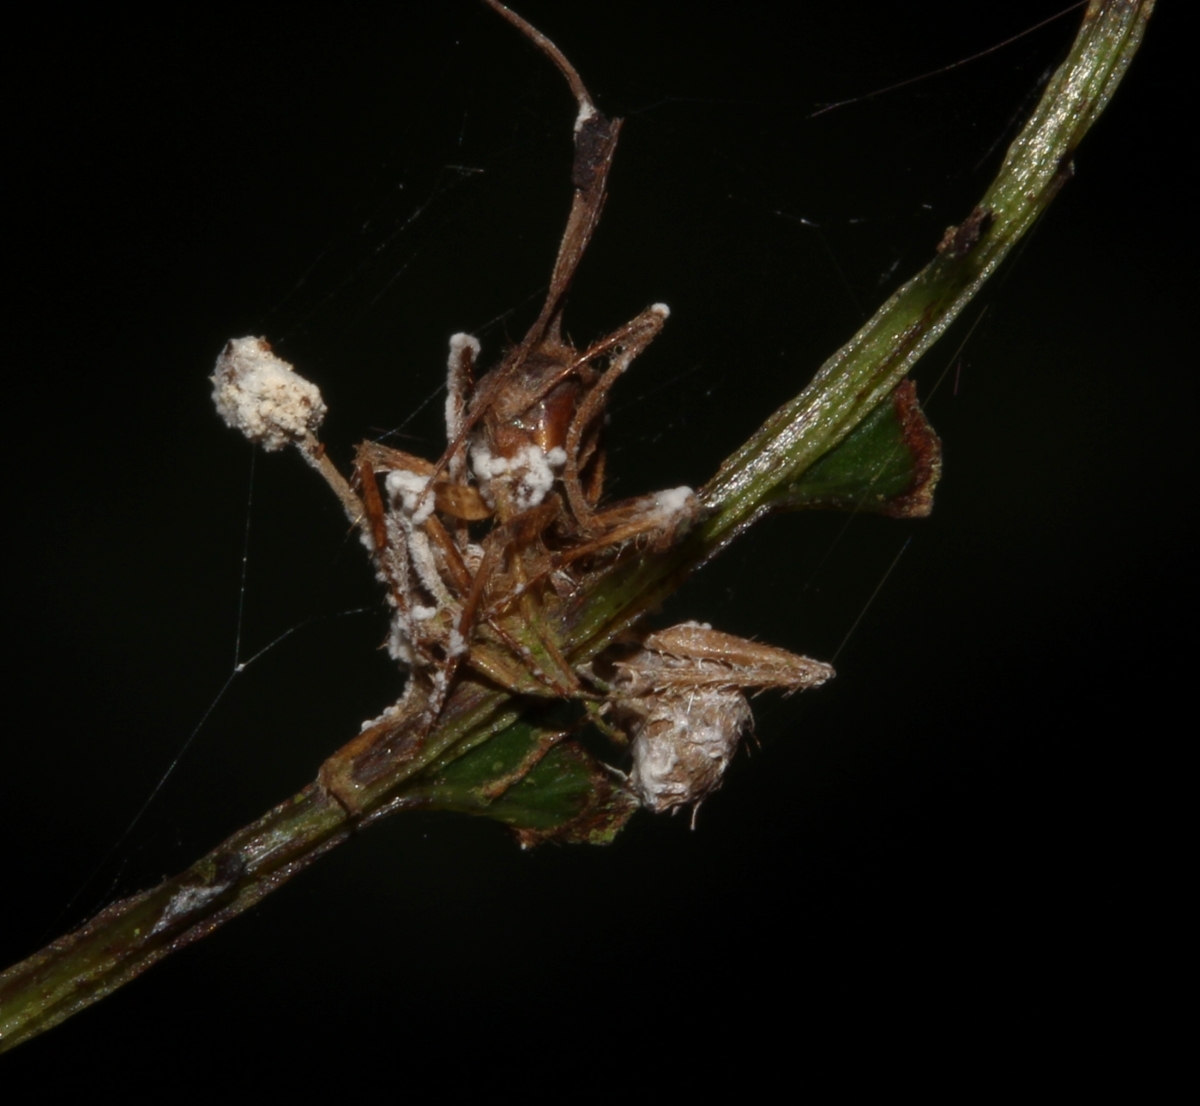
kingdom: Fungi
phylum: Ascomycota
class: Sordariomycetes
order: Hypocreales
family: Ophiocordycipitaceae
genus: Ophiocordyceps
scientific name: Ophiocordyceps
